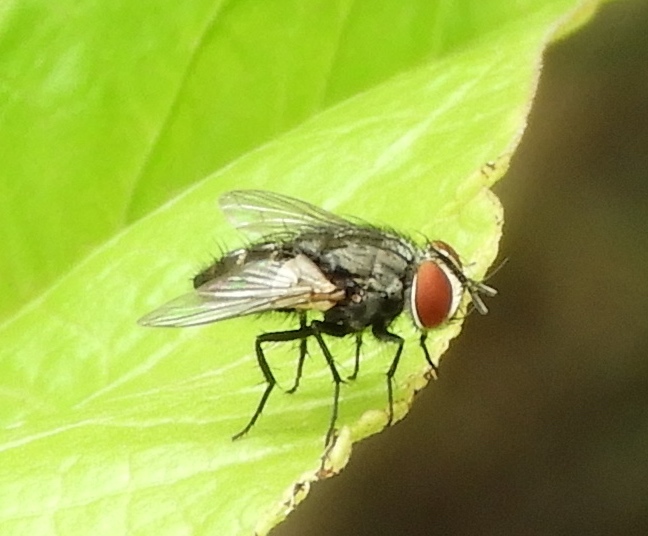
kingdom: Animalia
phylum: Arthropoda
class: Insecta
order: Diptera
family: Sarcophagidae
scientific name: Sarcophagidae
